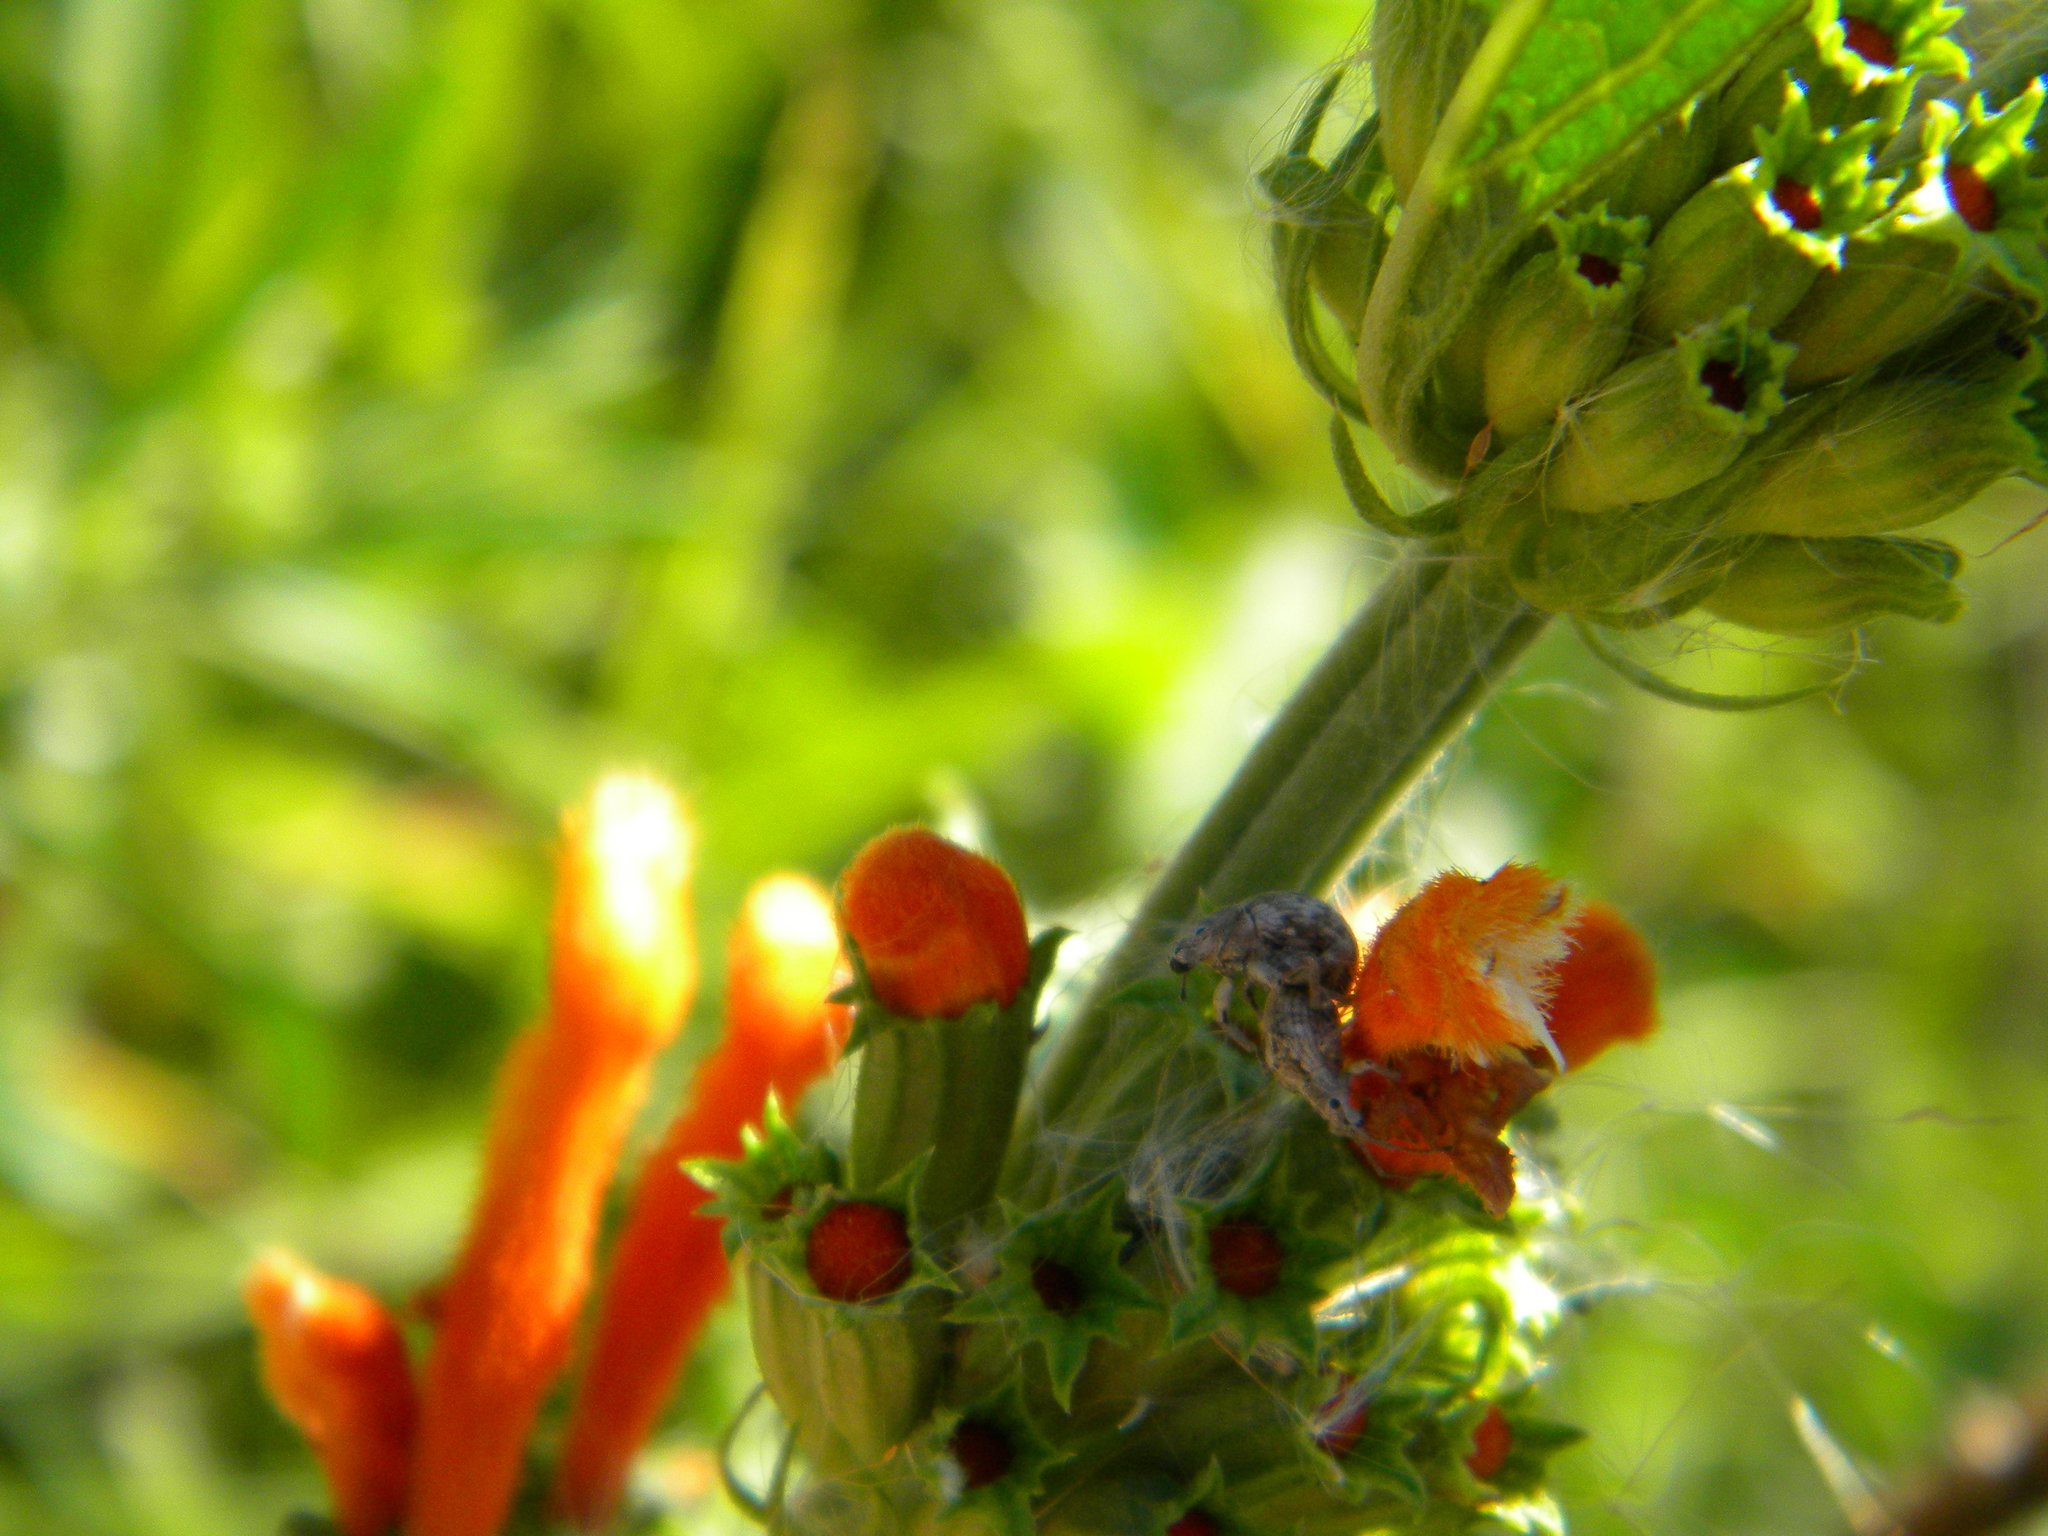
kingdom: Animalia
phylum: Arthropoda
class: Insecta
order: Coleoptera
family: Curculionidae
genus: Ellimenistes
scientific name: Ellimenistes laesicollis
